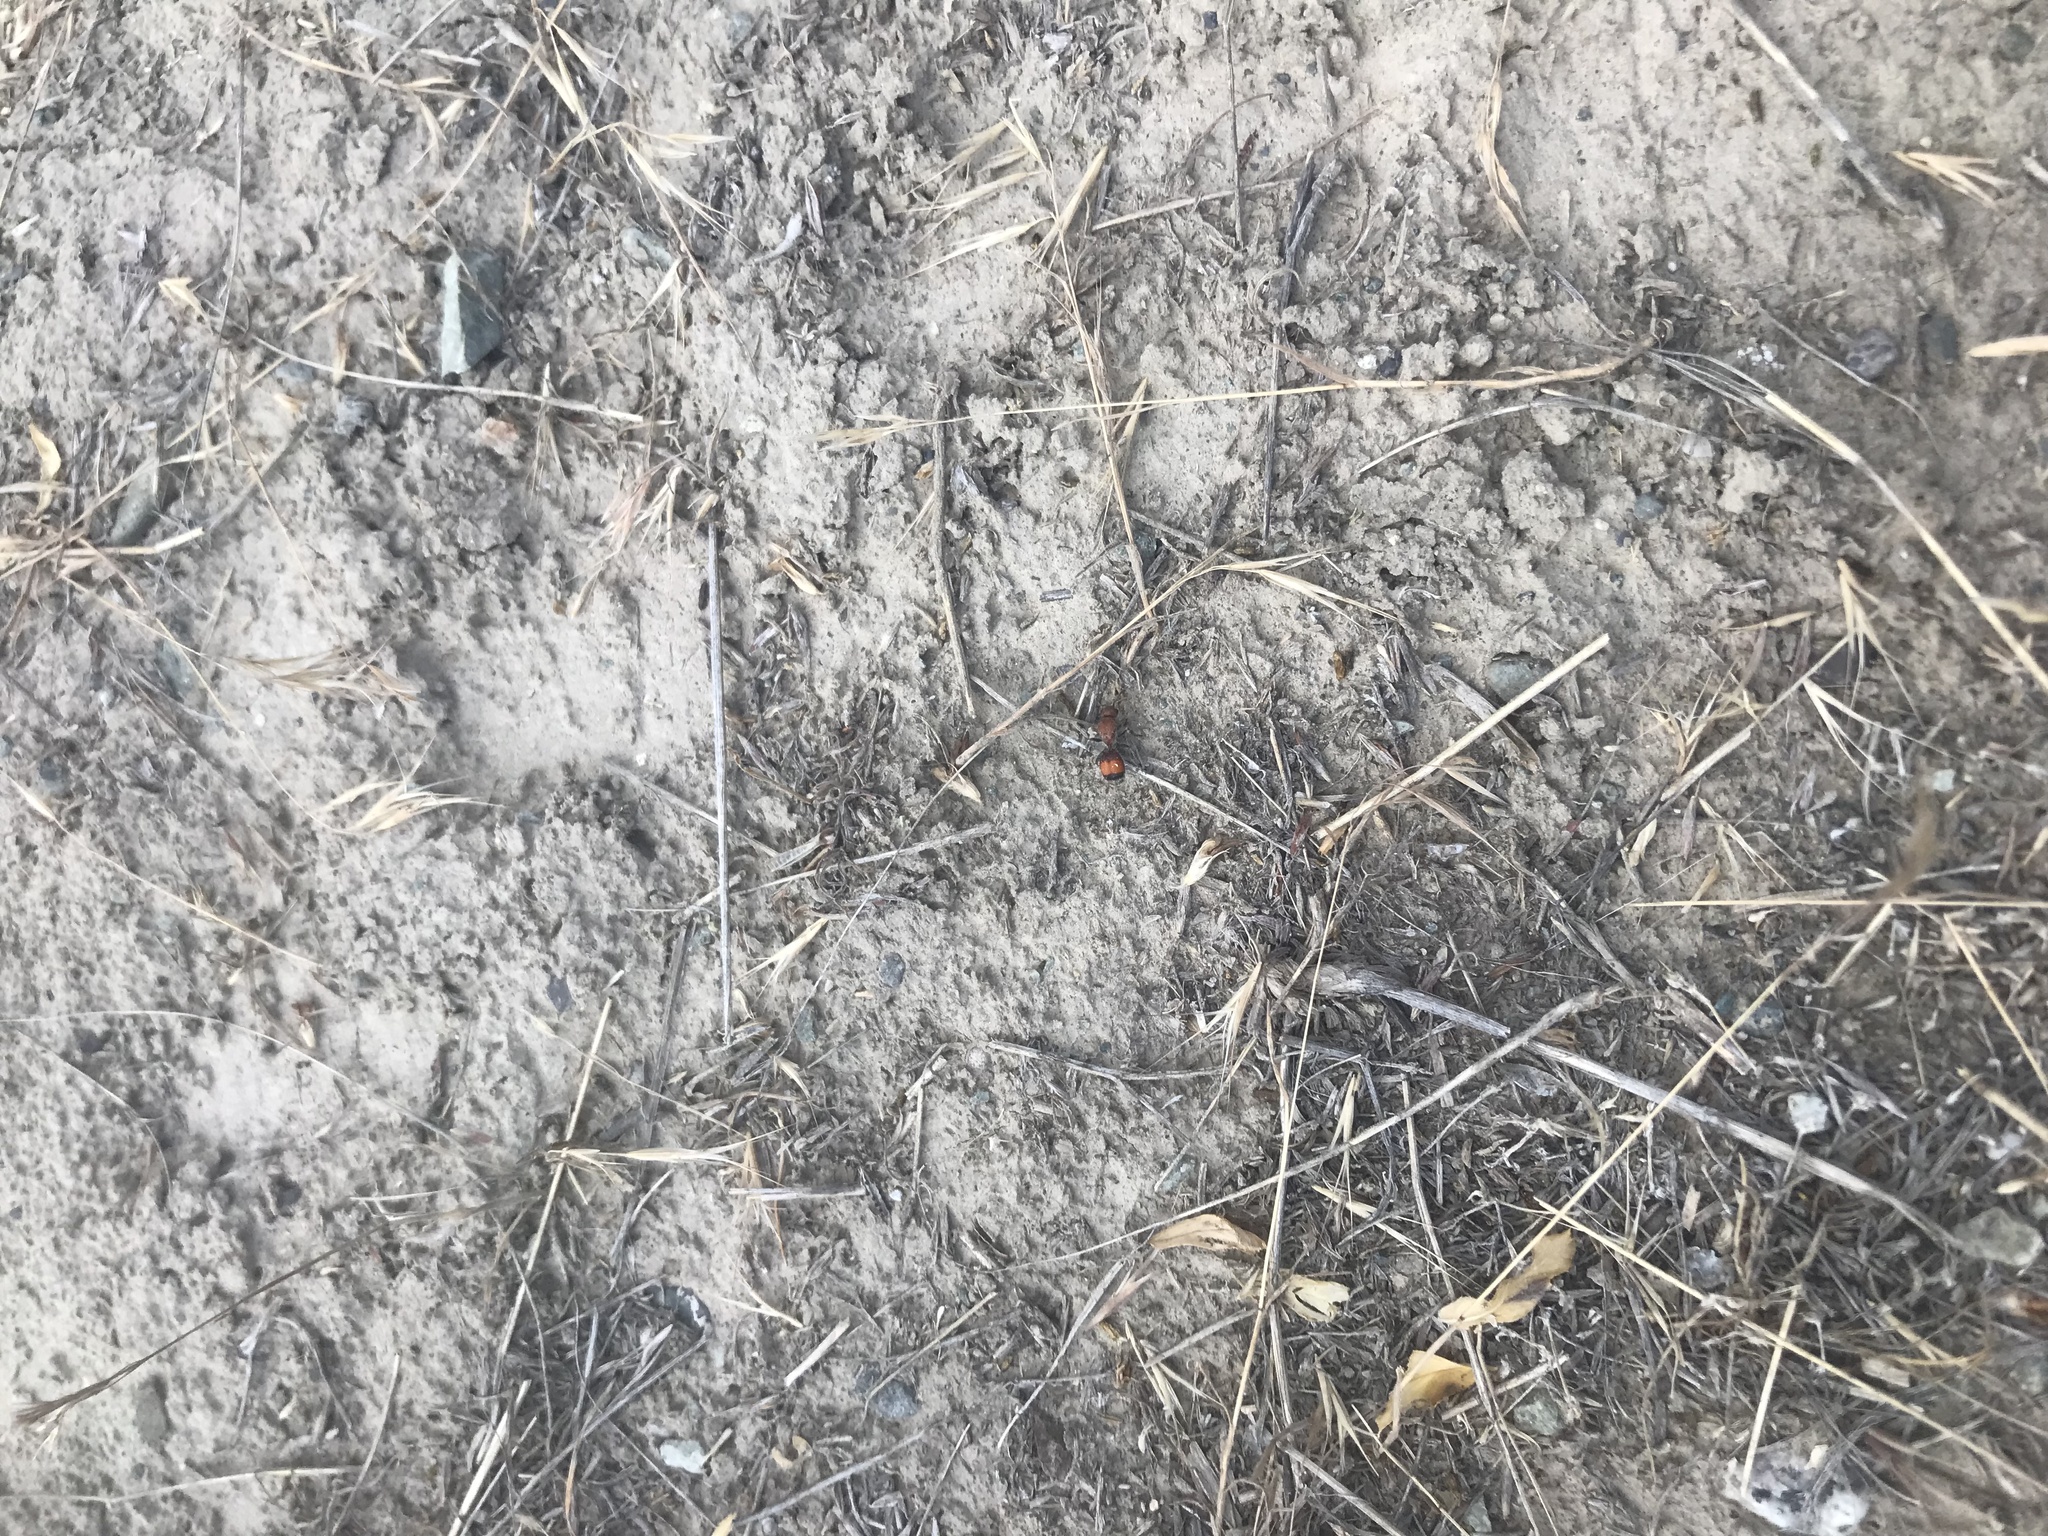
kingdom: Animalia
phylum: Arthropoda
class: Insecta
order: Hymenoptera
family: Mutillidae
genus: Dasymutilla
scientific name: Dasymutilla
